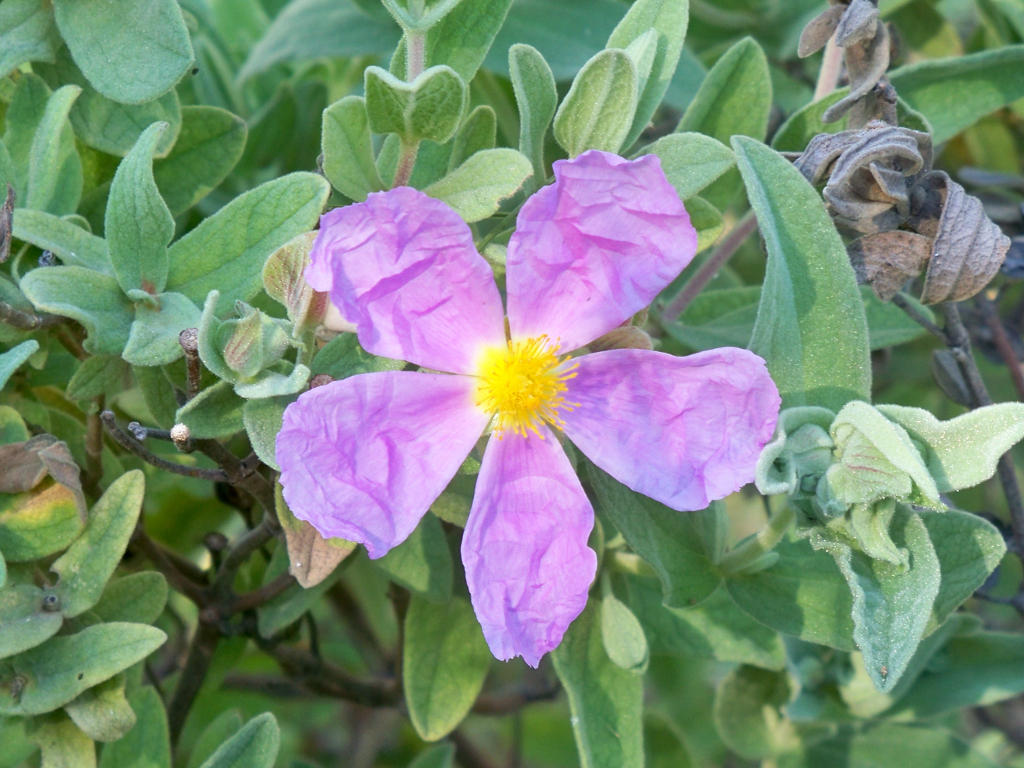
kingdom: Plantae
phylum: Tracheophyta
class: Magnoliopsida
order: Malvales
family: Cistaceae
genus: Cistus
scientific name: Cistus albidus
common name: White-leaf rock-rose
